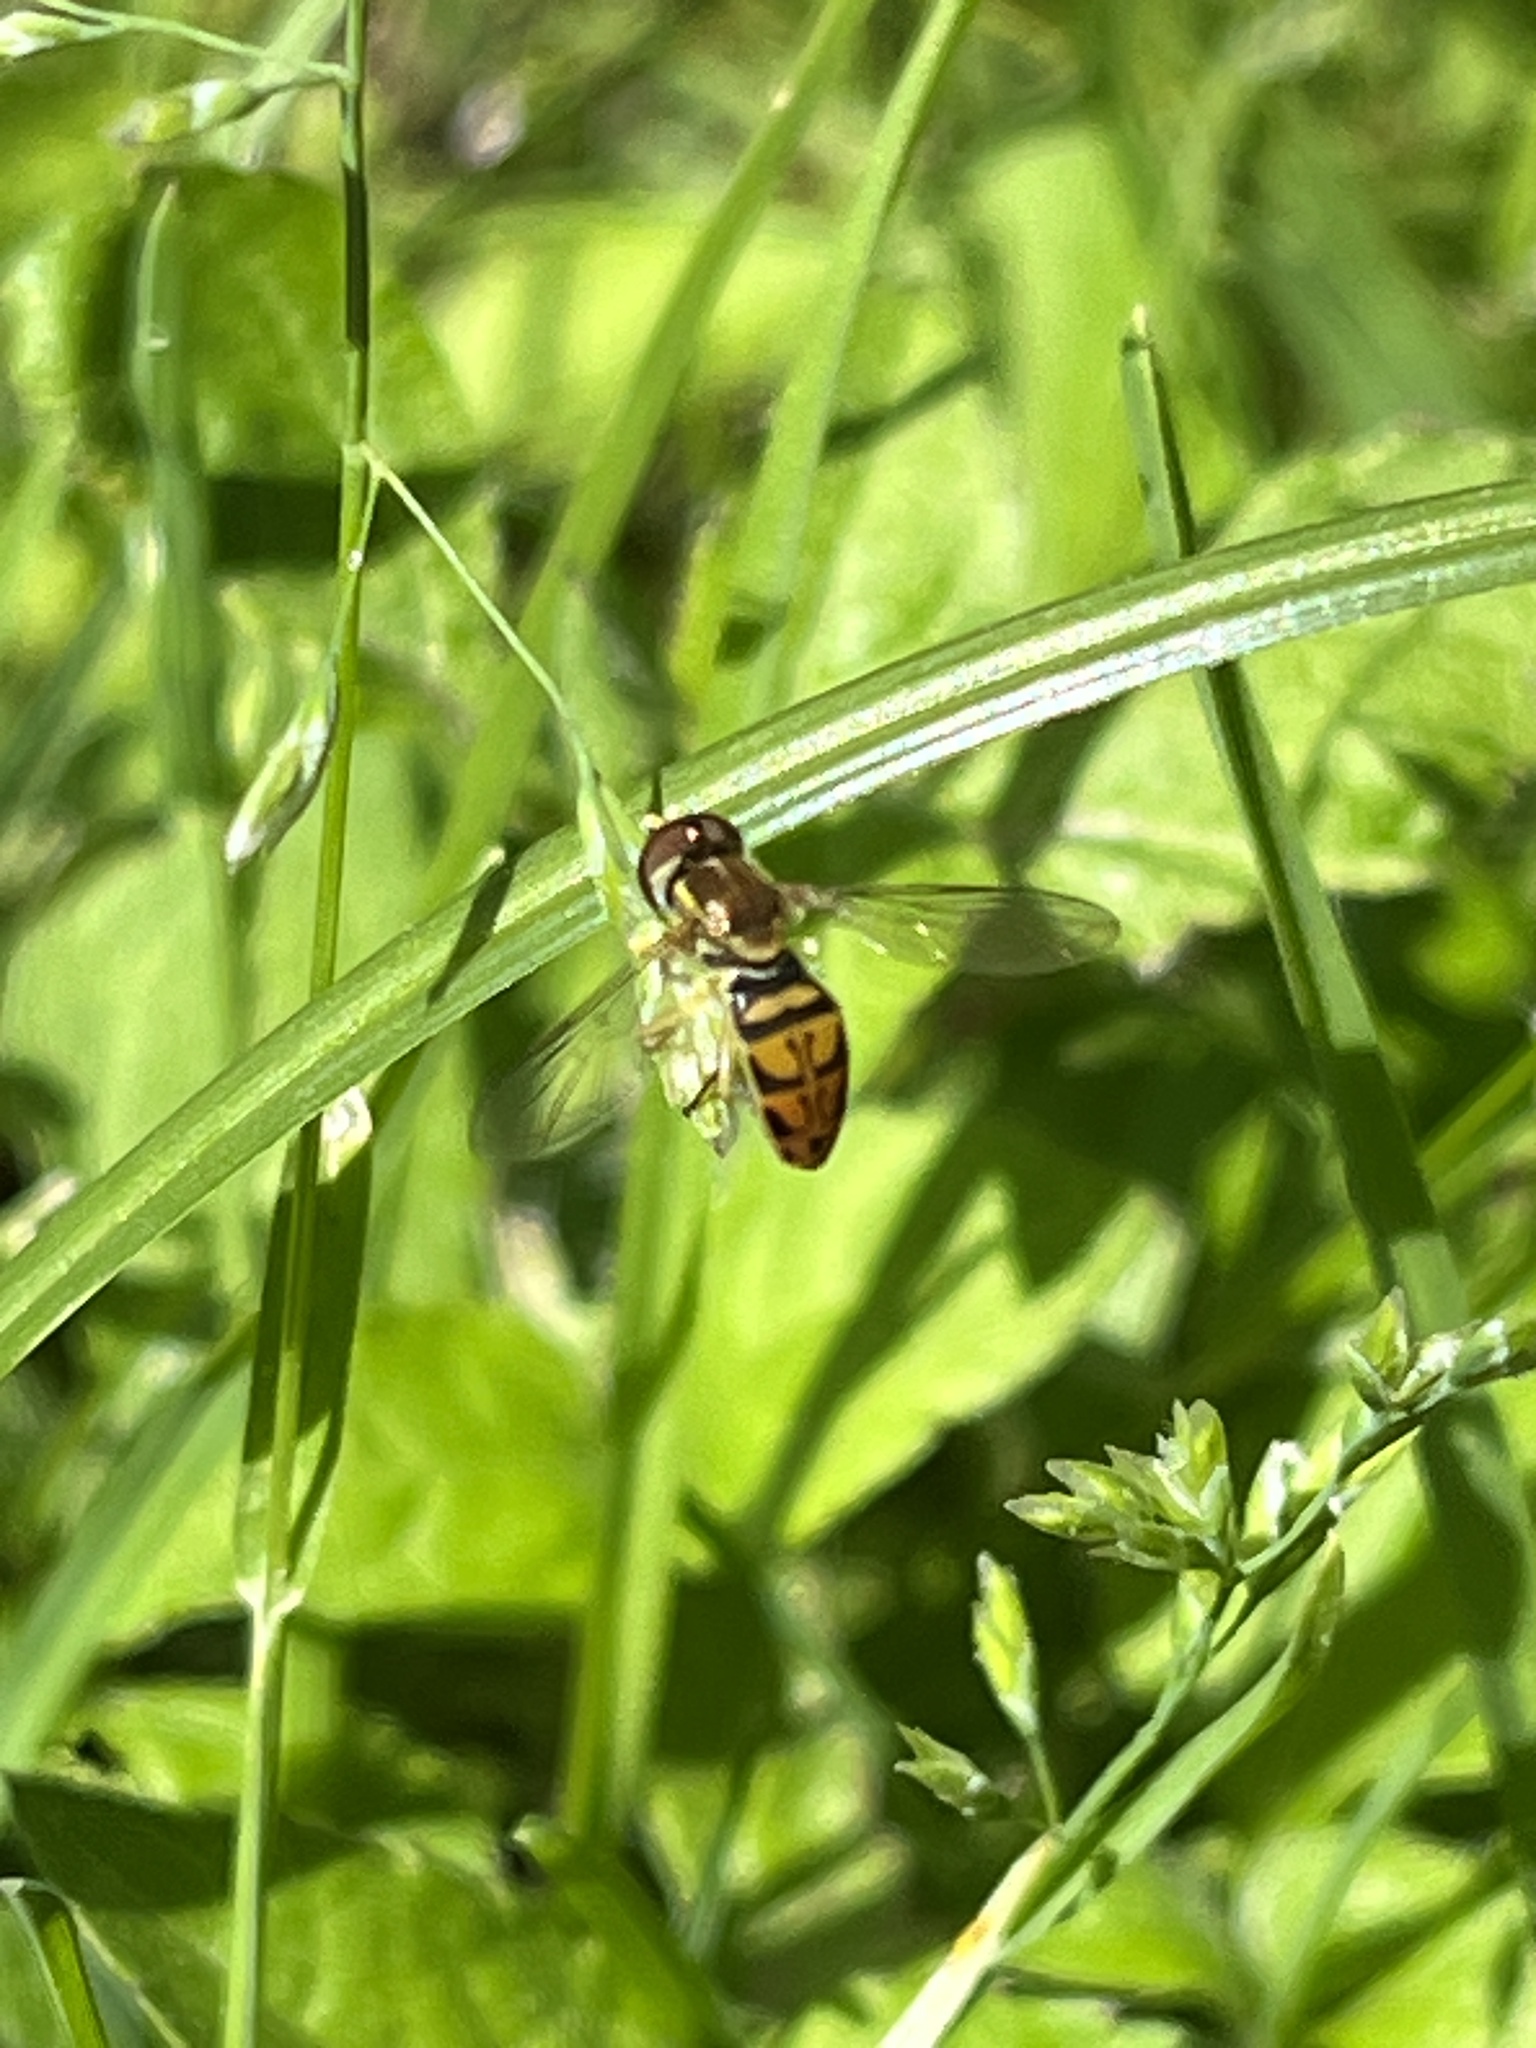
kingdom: Animalia
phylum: Arthropoda
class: Insecta
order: Diptera
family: Syrphidae
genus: Toxomerus
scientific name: Toxomerus marginatus
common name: Syrphid fly
